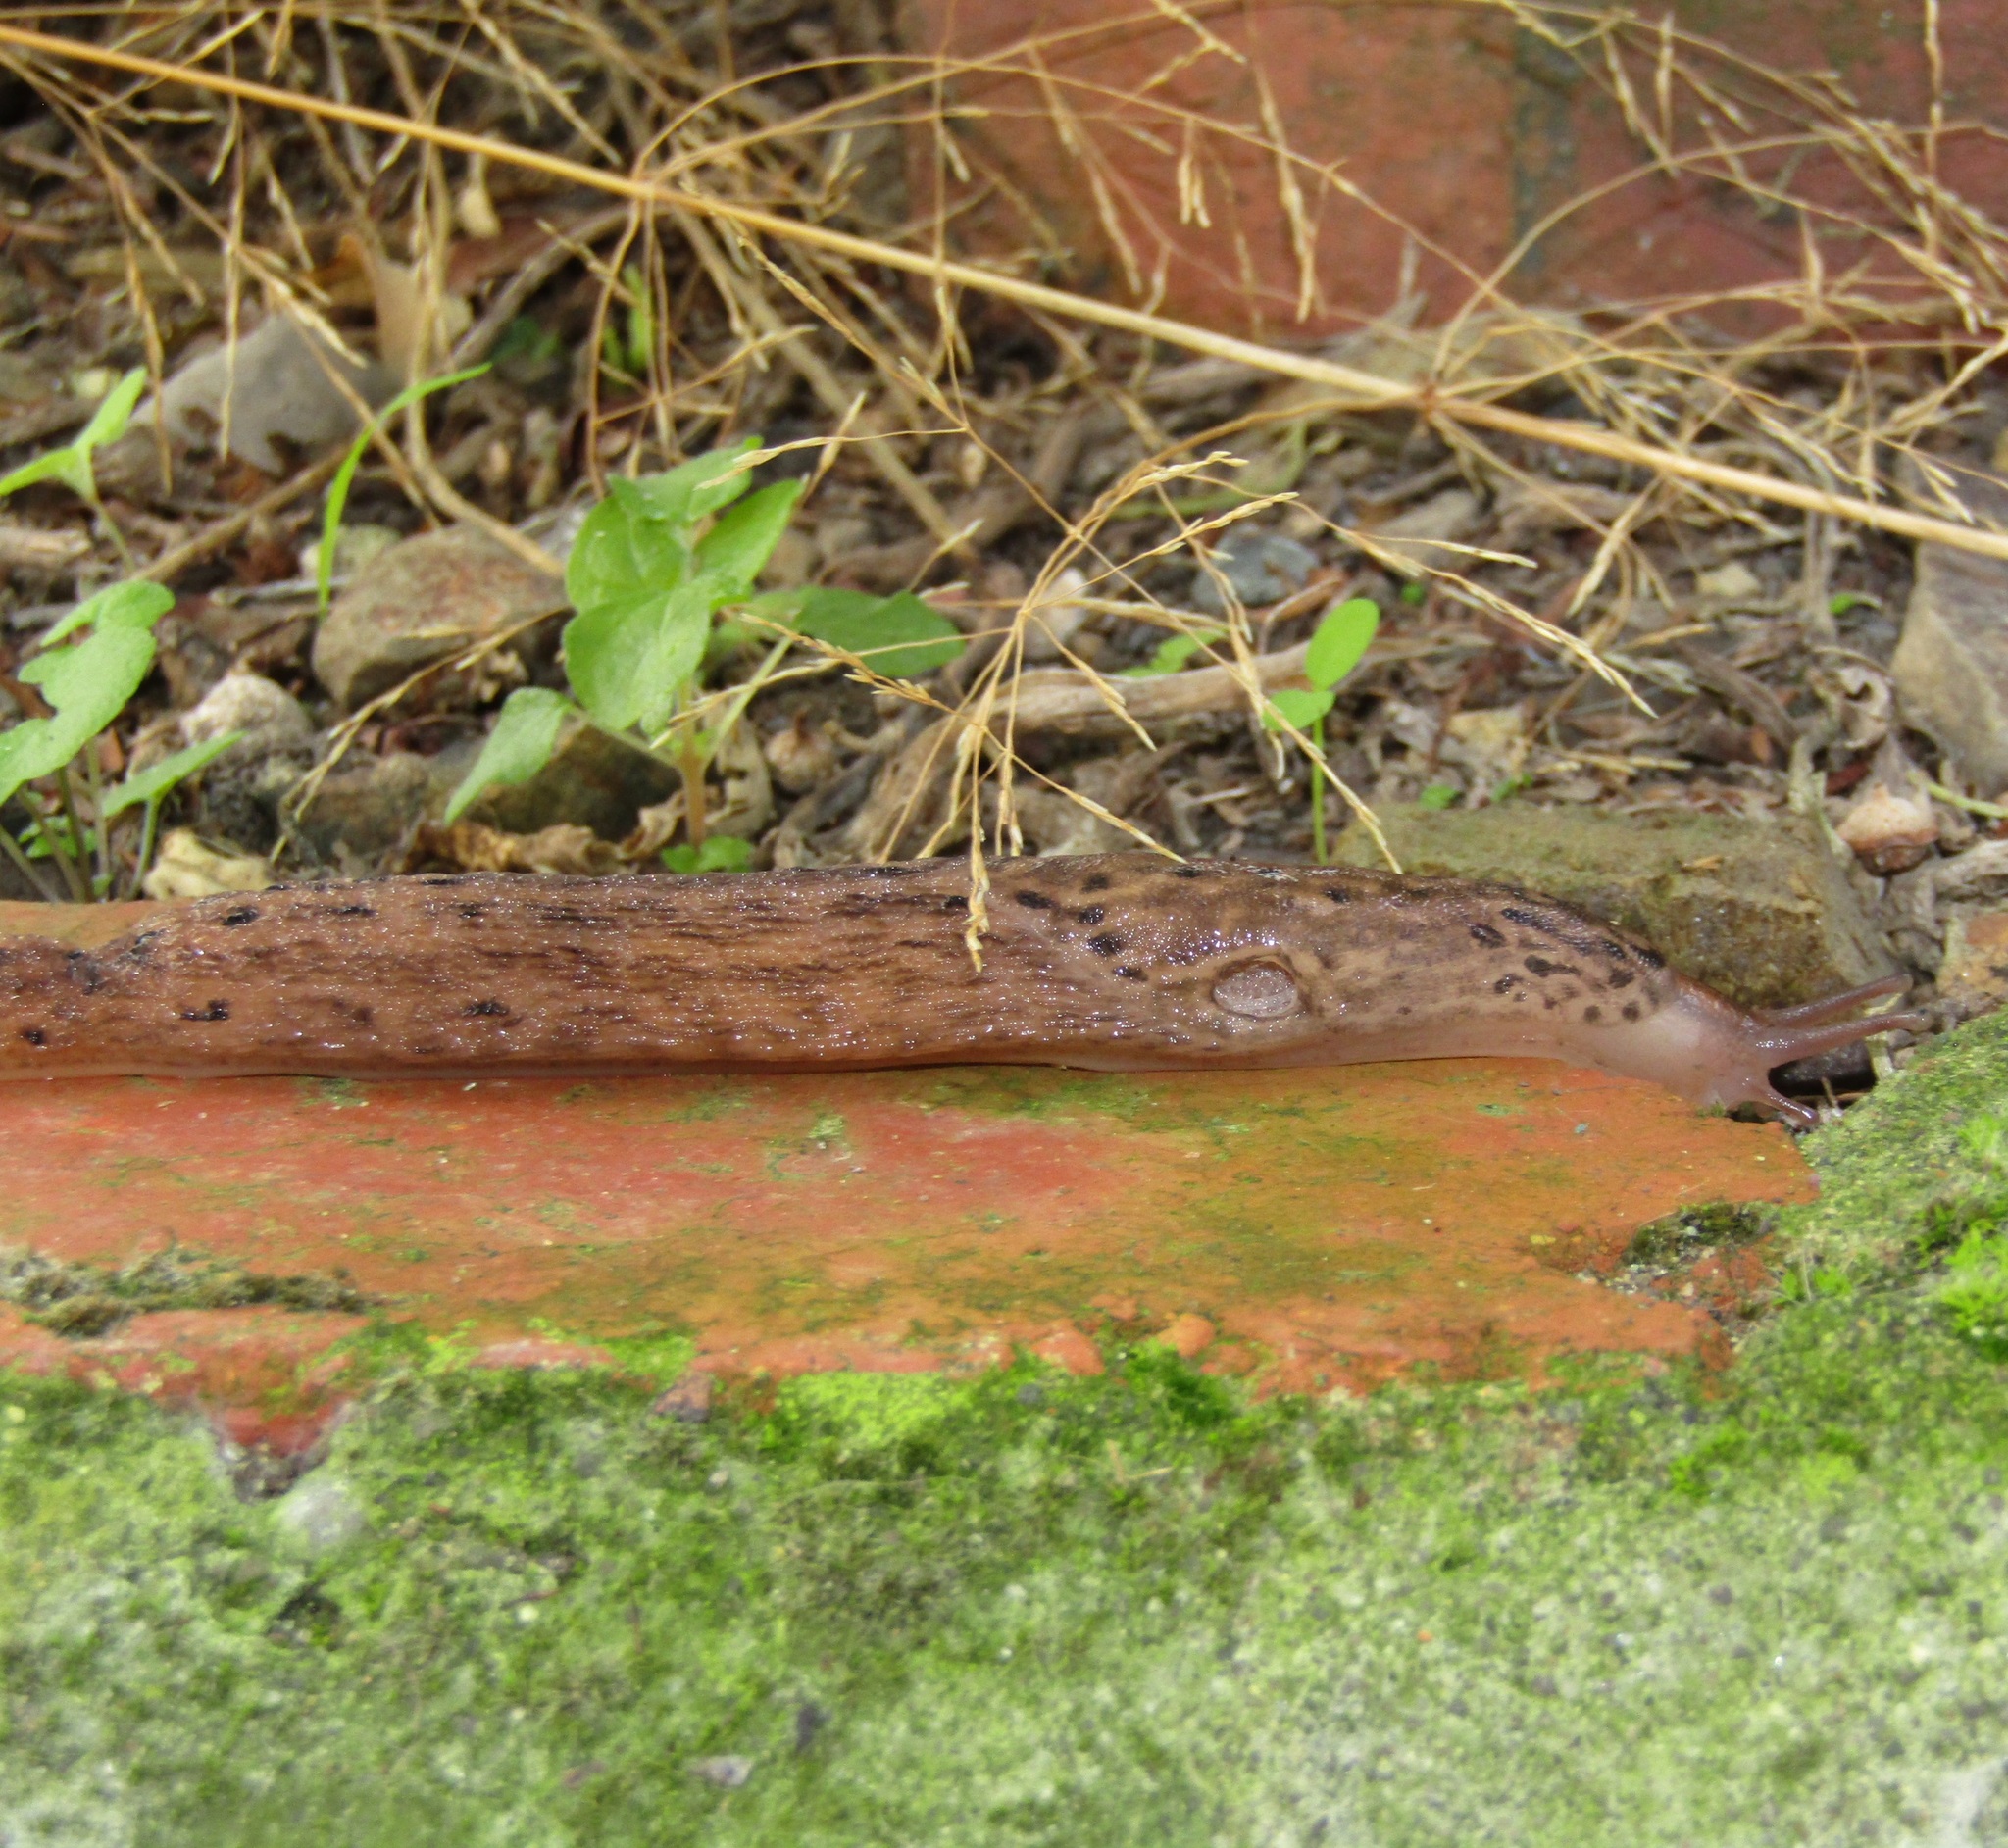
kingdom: Animalia
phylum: Mollusca
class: Gastropoda
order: Stylommatophora
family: Limacidae
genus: Limax
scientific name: Limax maximus
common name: Great grey slug
